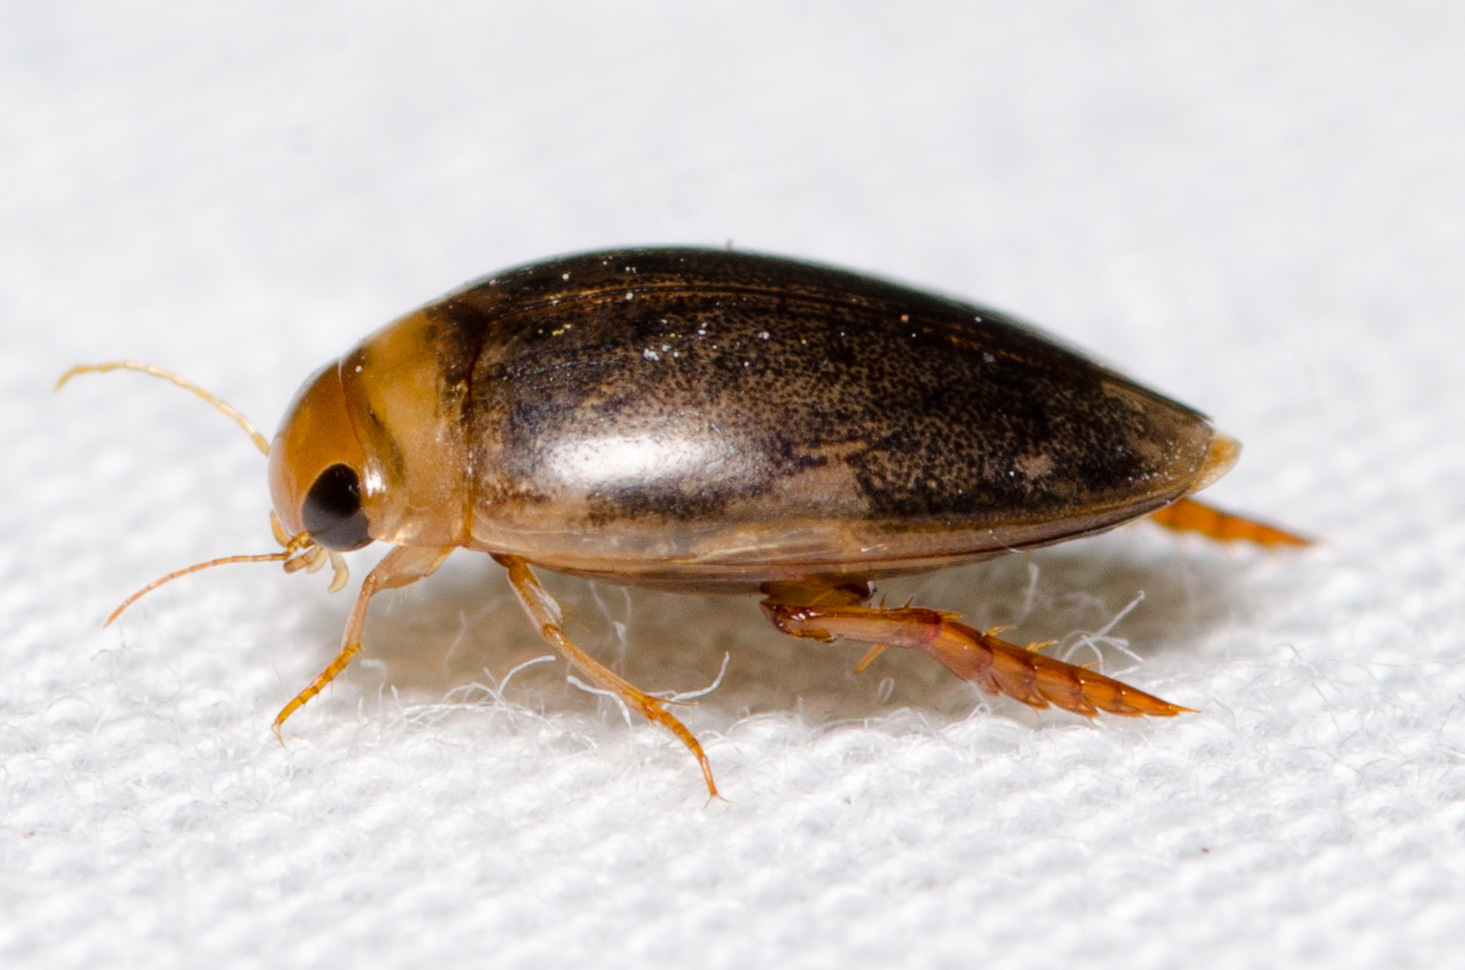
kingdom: Animalia
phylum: Arthropoda
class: Insecta
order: Coleoptera
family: Dytiscidae
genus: Laccophilus
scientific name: Laccophilus proximus
